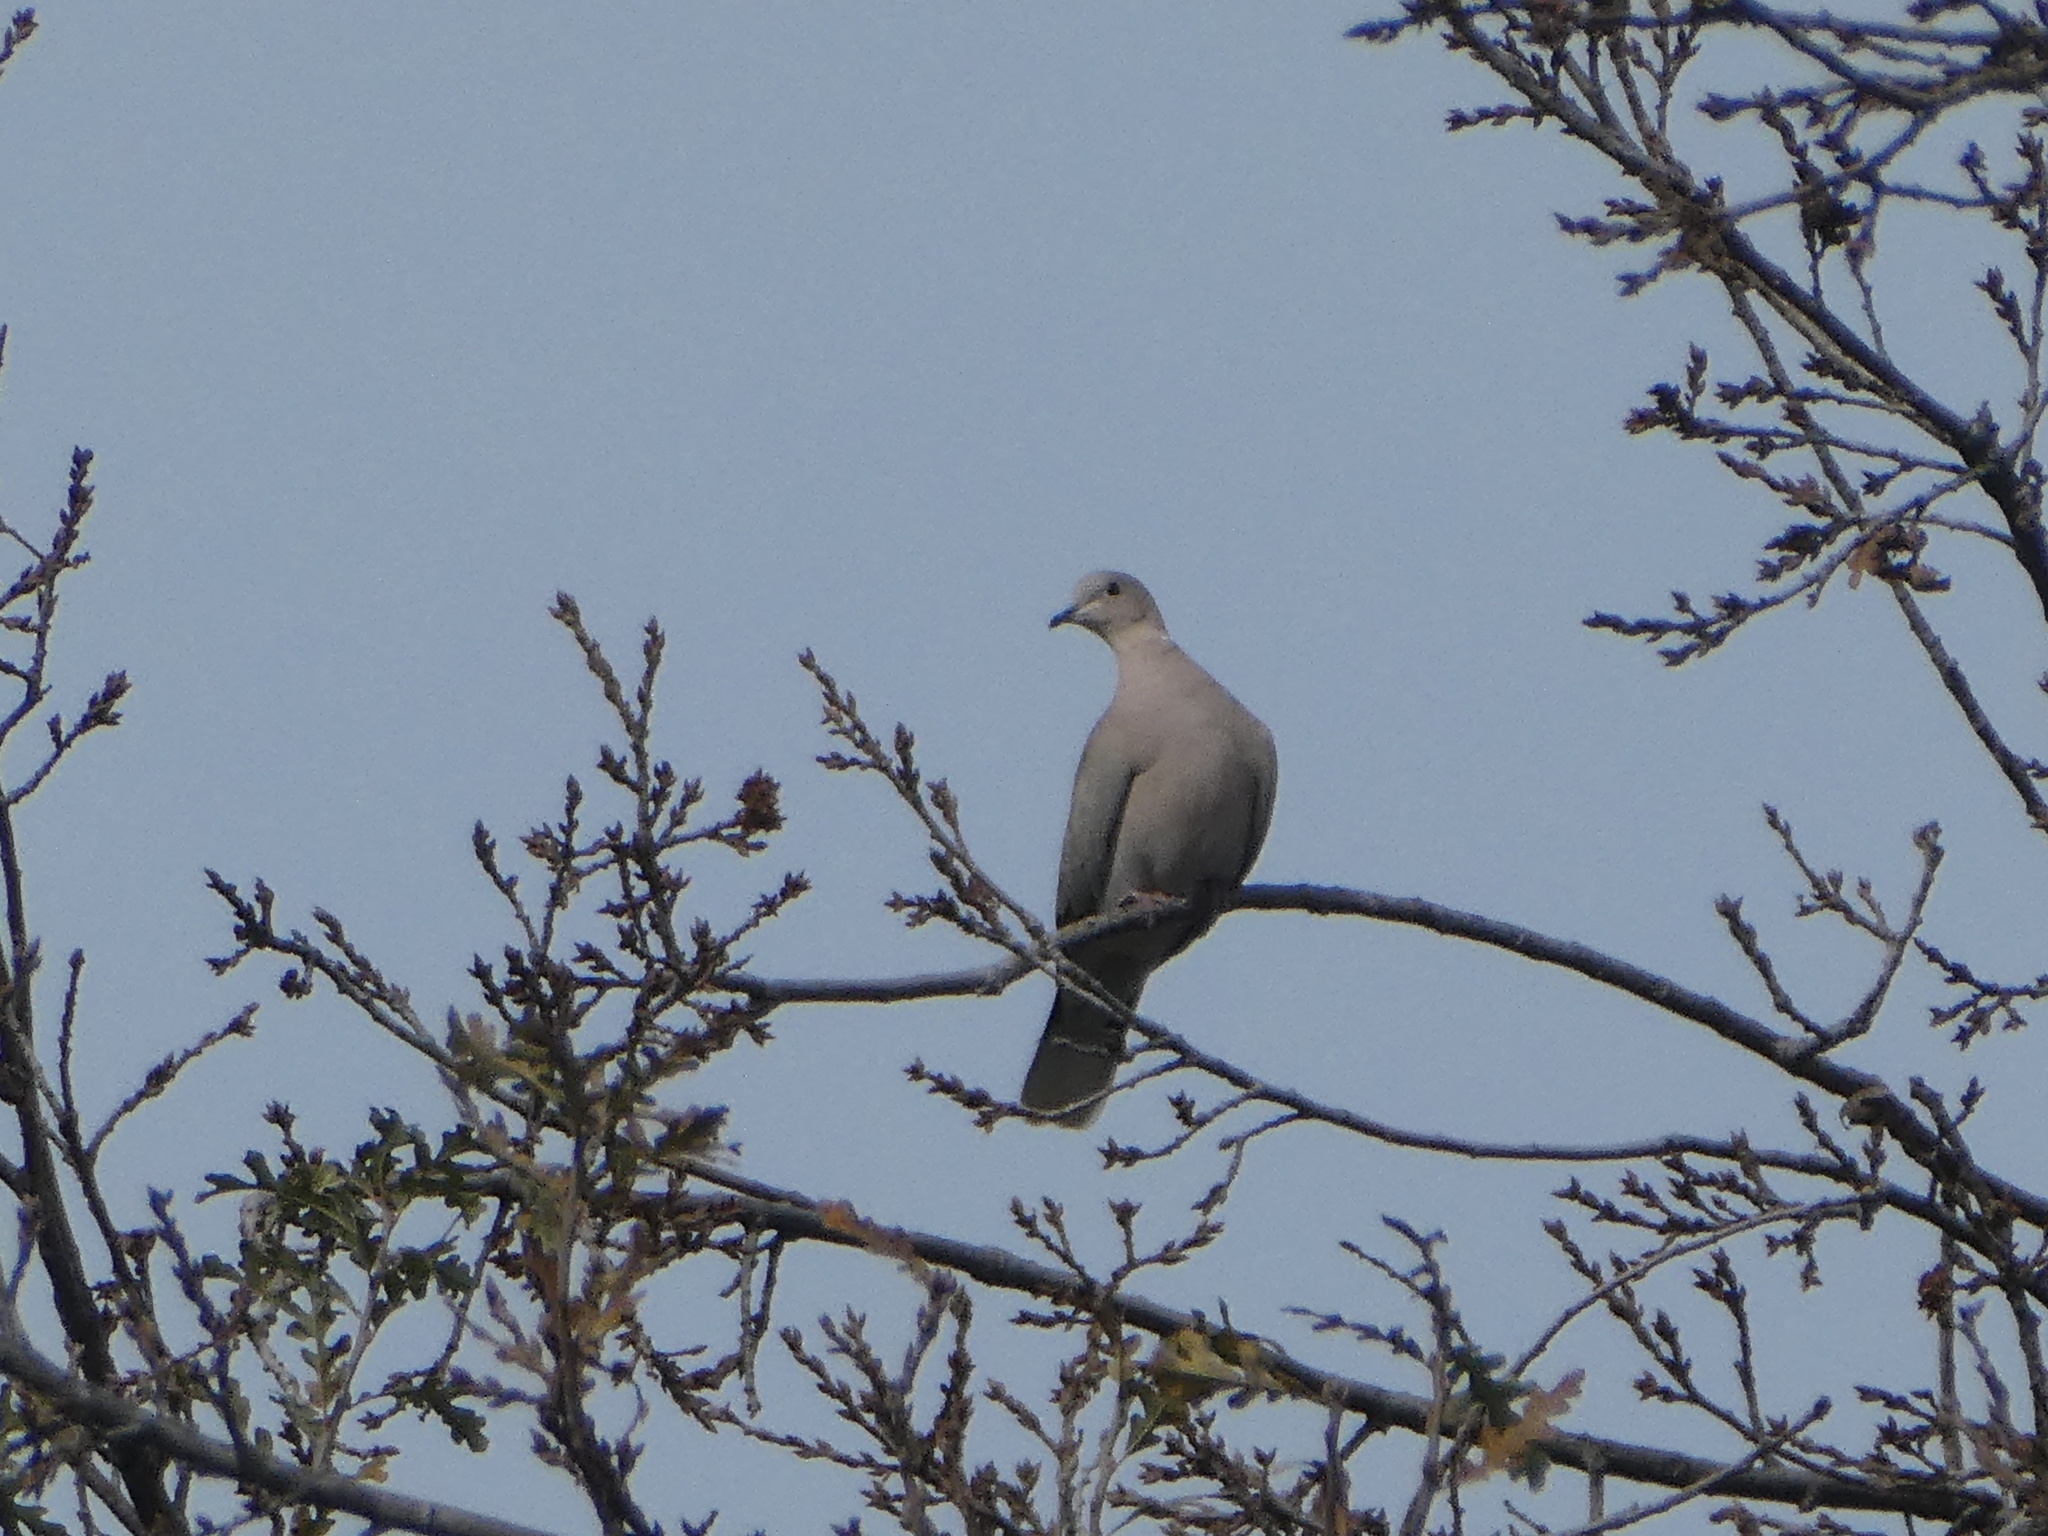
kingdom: Animalia
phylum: Chordata
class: Aves
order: Columbiformes
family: Columbidae
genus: Streptopelia
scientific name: Streptopelia decaocto
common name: Eurasian collared dove
